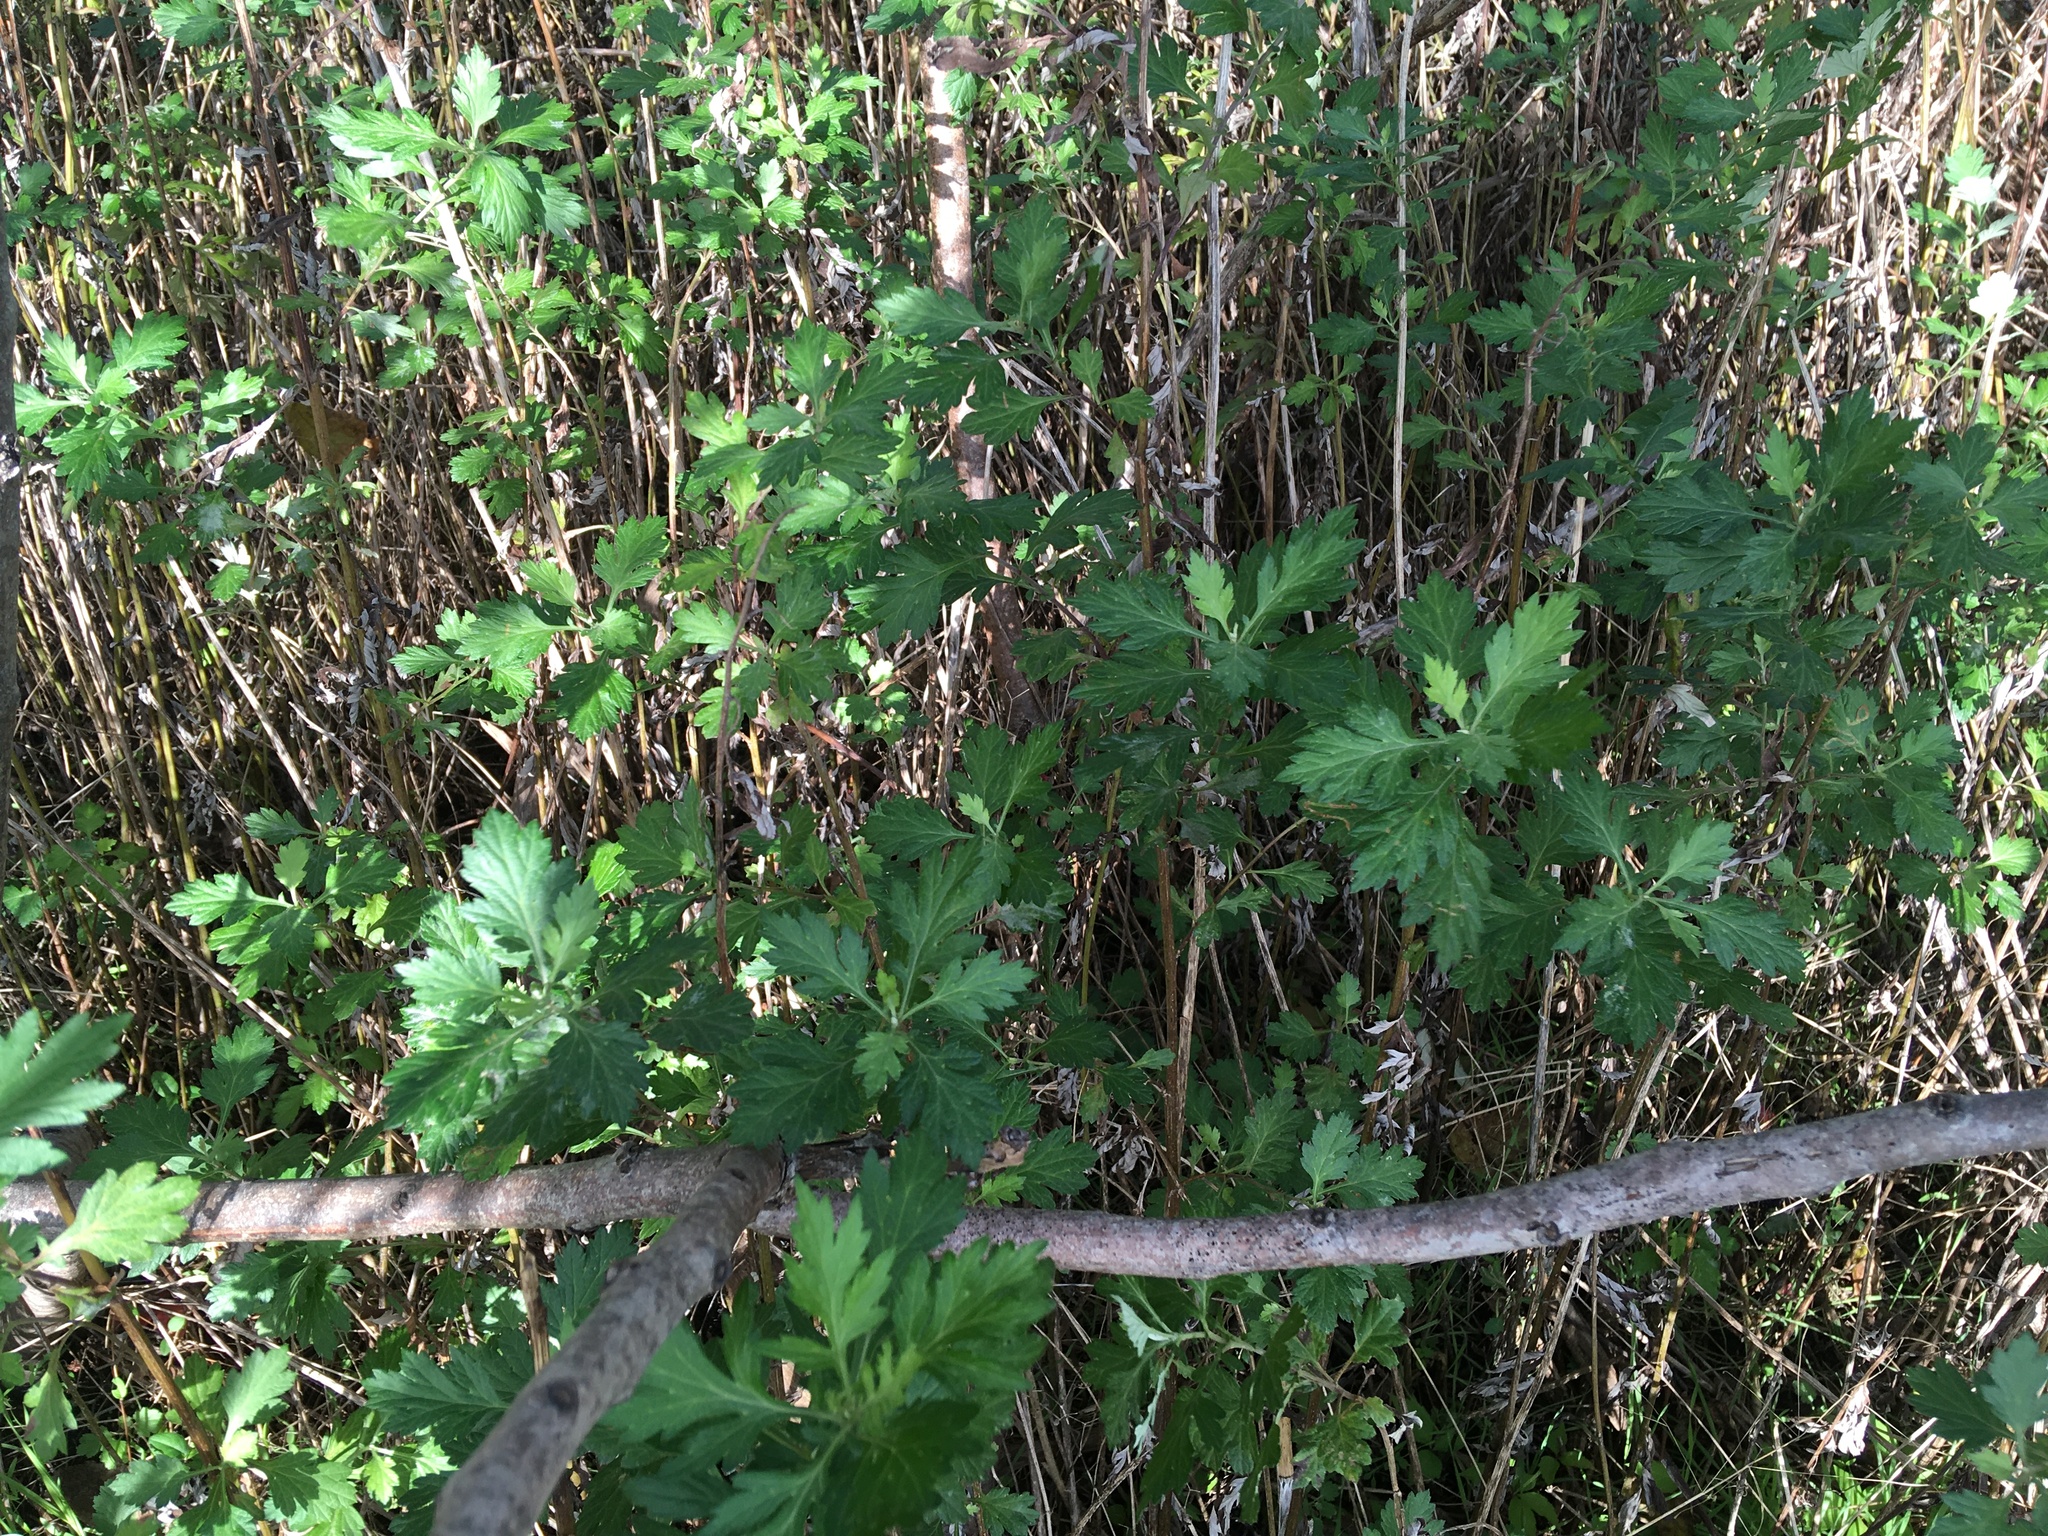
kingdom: Plantae
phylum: Tracheophyta
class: Magnoliopsida
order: Asterales
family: Asteraceae
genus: Artemisia
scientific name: Artemisia vulgaris
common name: Mugwort
